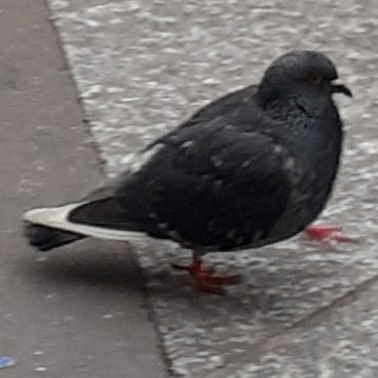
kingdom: Animalia
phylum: Chordata
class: Aves
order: Columbiformes
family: Columbidae
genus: Columba
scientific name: Columba livia
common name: Rock pigeon
